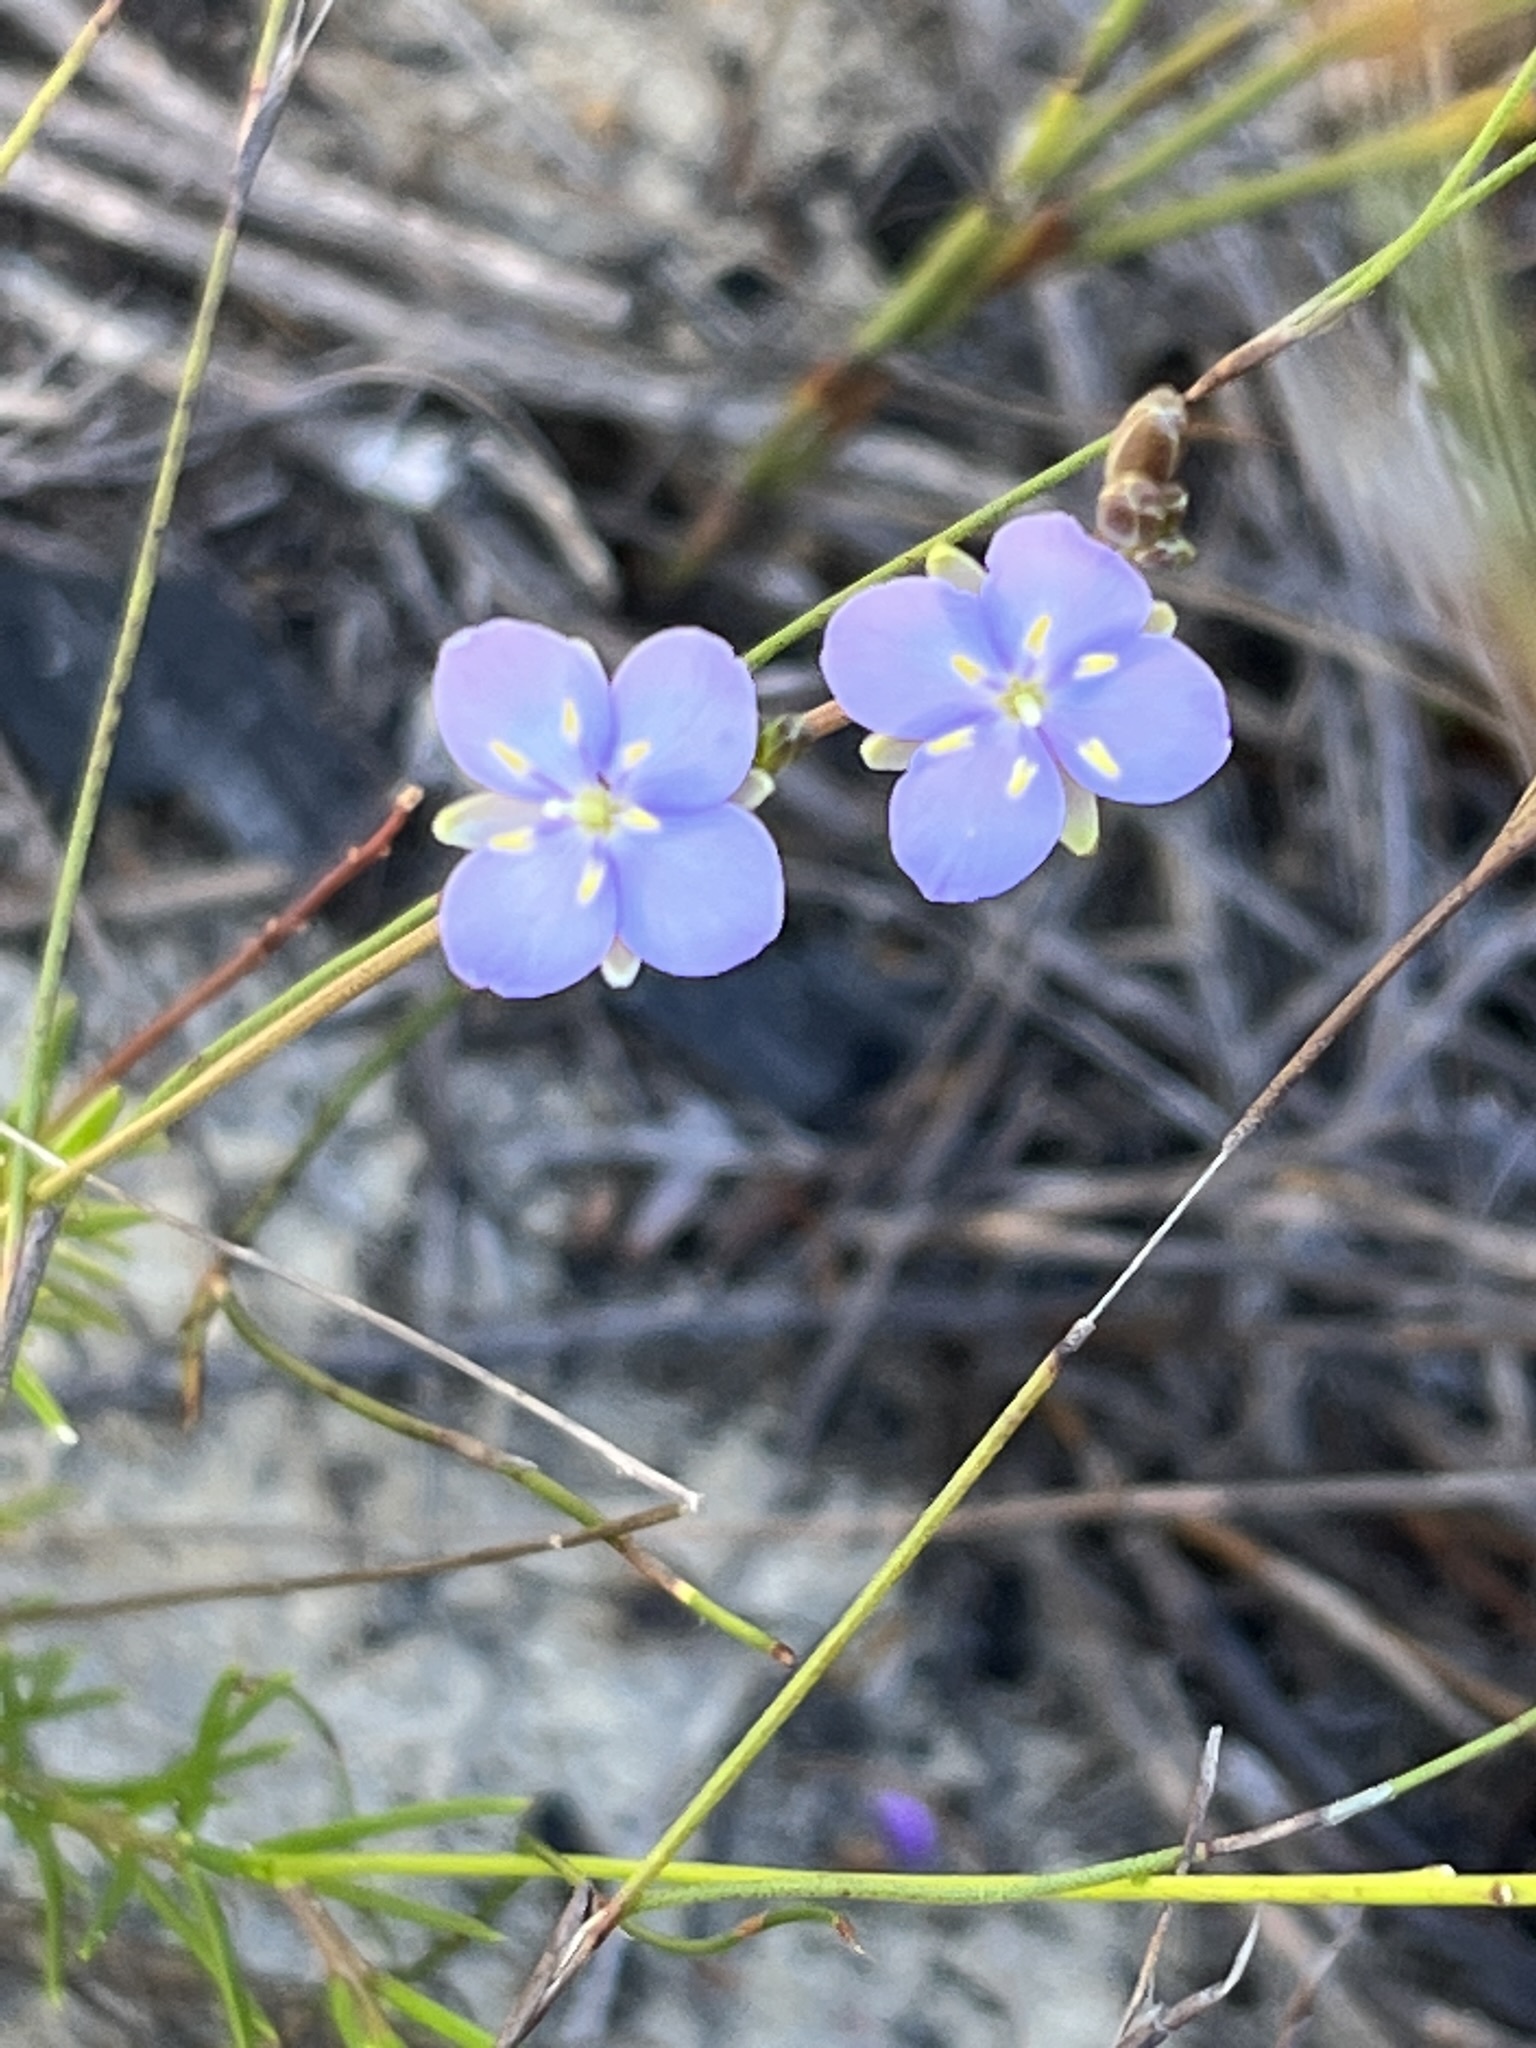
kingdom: Plantae
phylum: Tracheophyta
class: Magnoliopsida
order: Brassicales
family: Brassicaceae
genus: Heliophila
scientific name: Heliophila subulata
